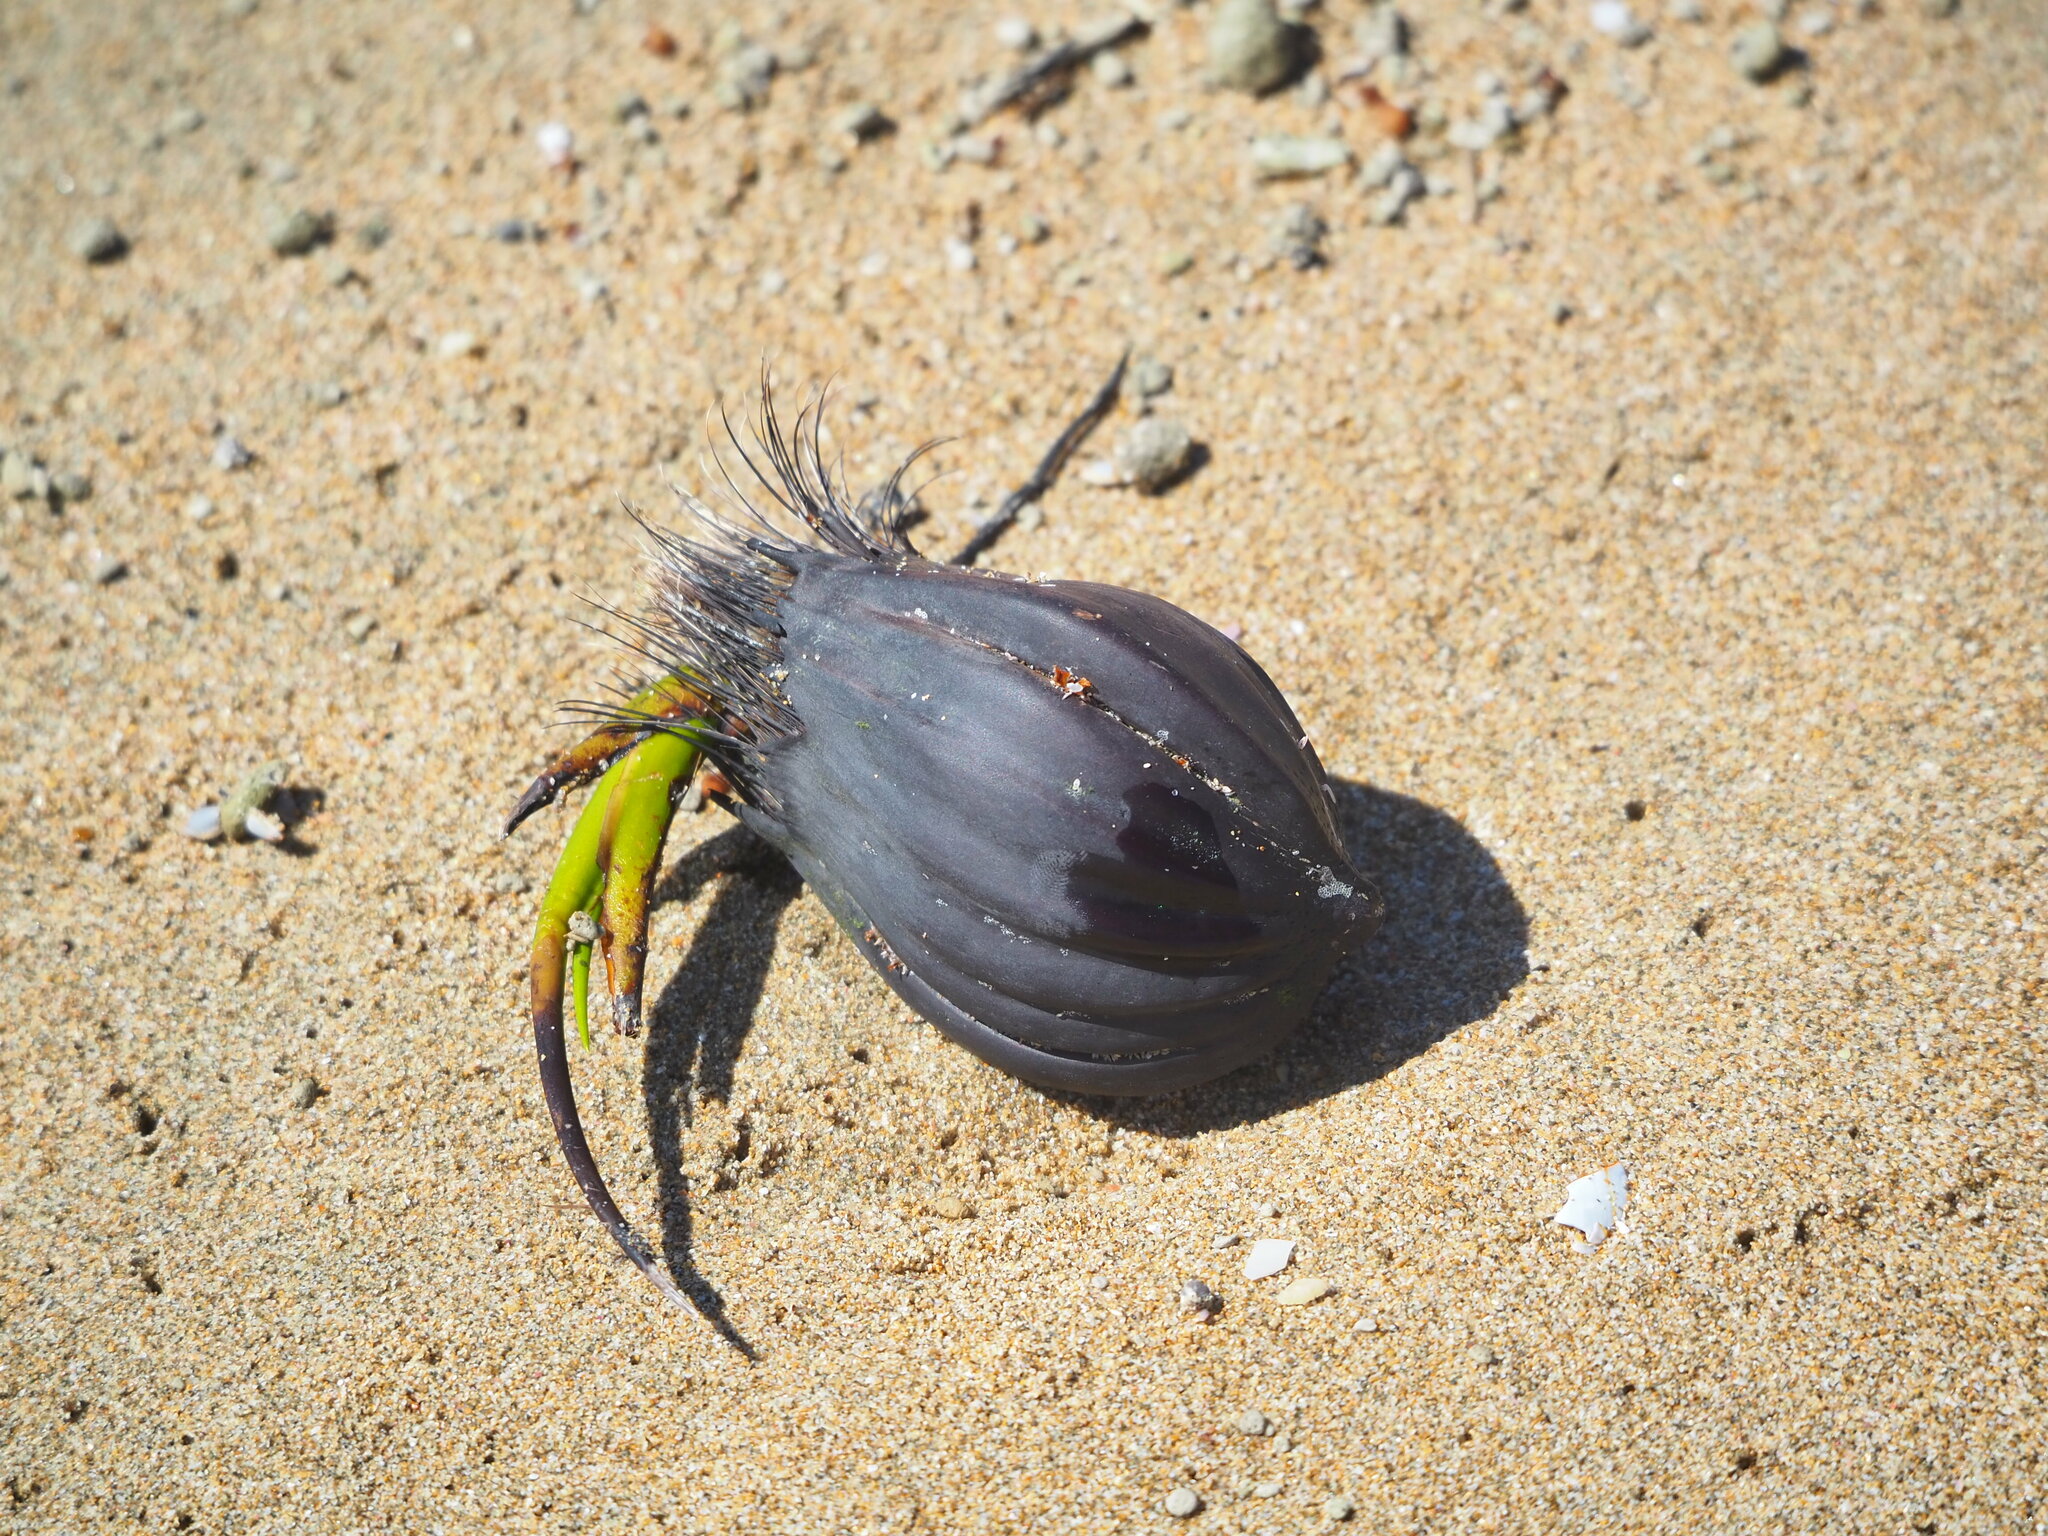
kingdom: Plantae
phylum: Tracheophyta
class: Liliopsida
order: Arecales
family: Arecaceae
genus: Nypa
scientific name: Nypa fruticans
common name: Mangrove palm
